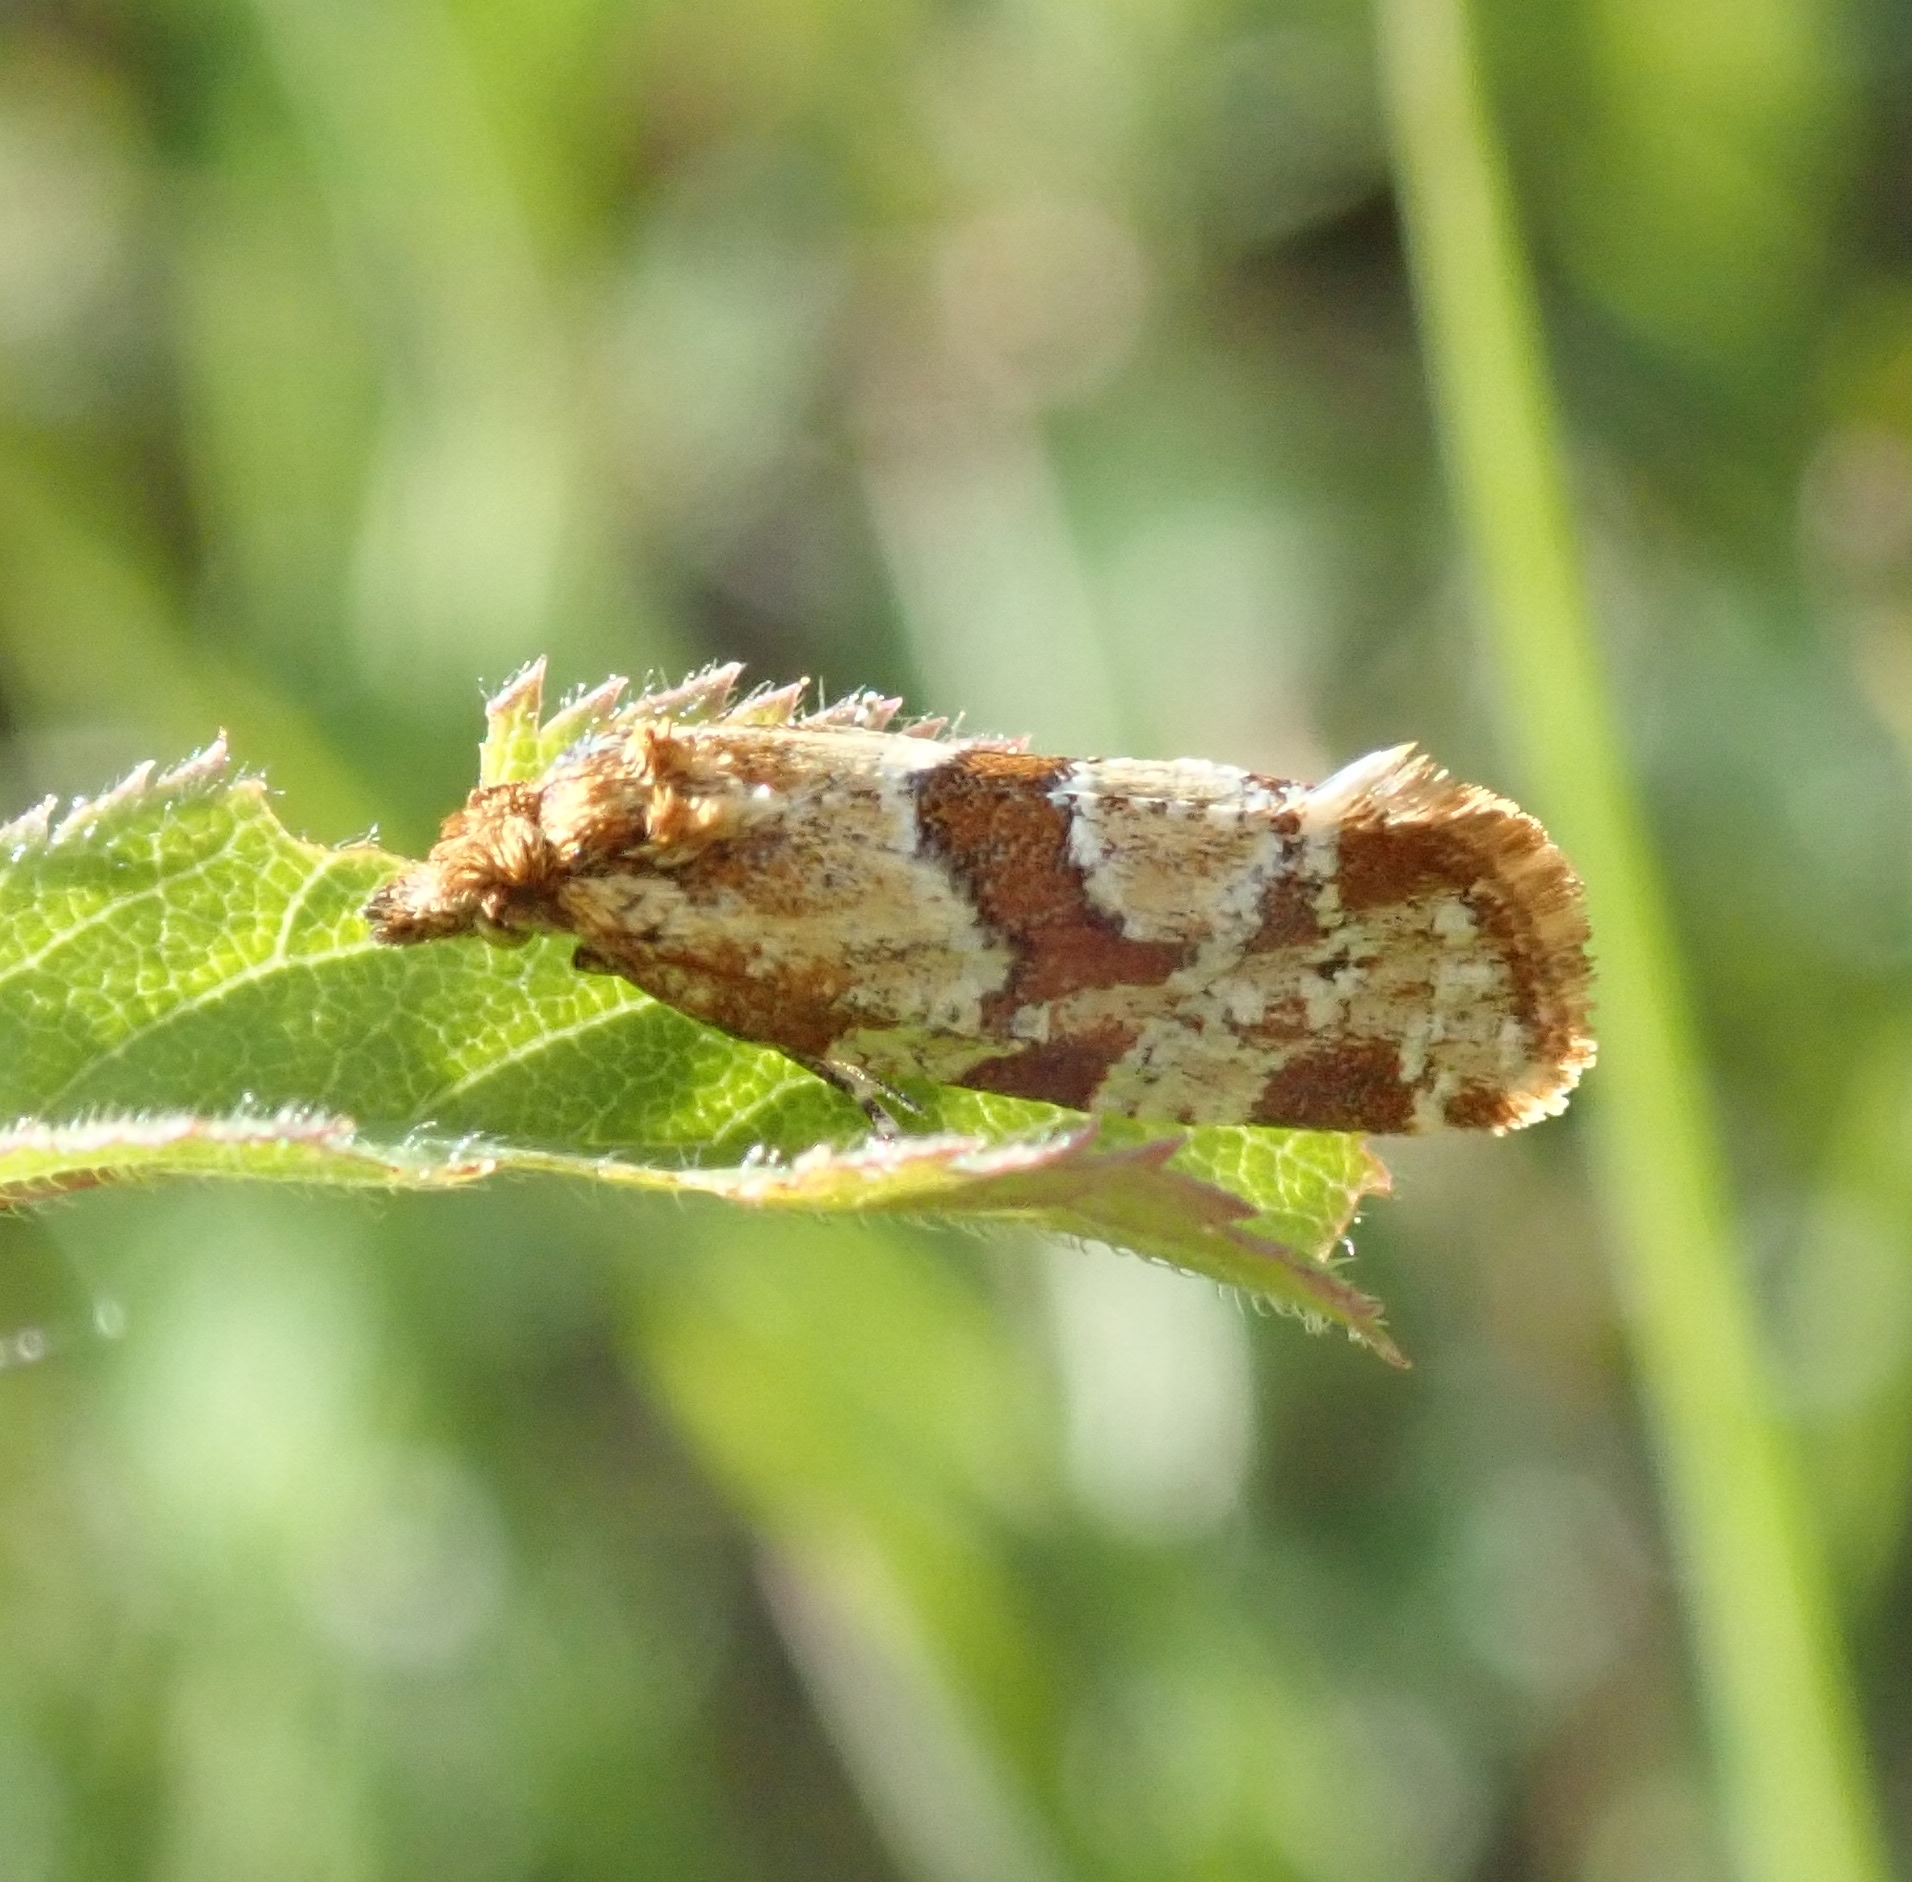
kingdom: Animalia
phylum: Arthropoda
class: Insecta
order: Lepidoptera
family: Tortricidae
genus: Aethes
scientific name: Aethes hartmanniana
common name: Scabious conch
